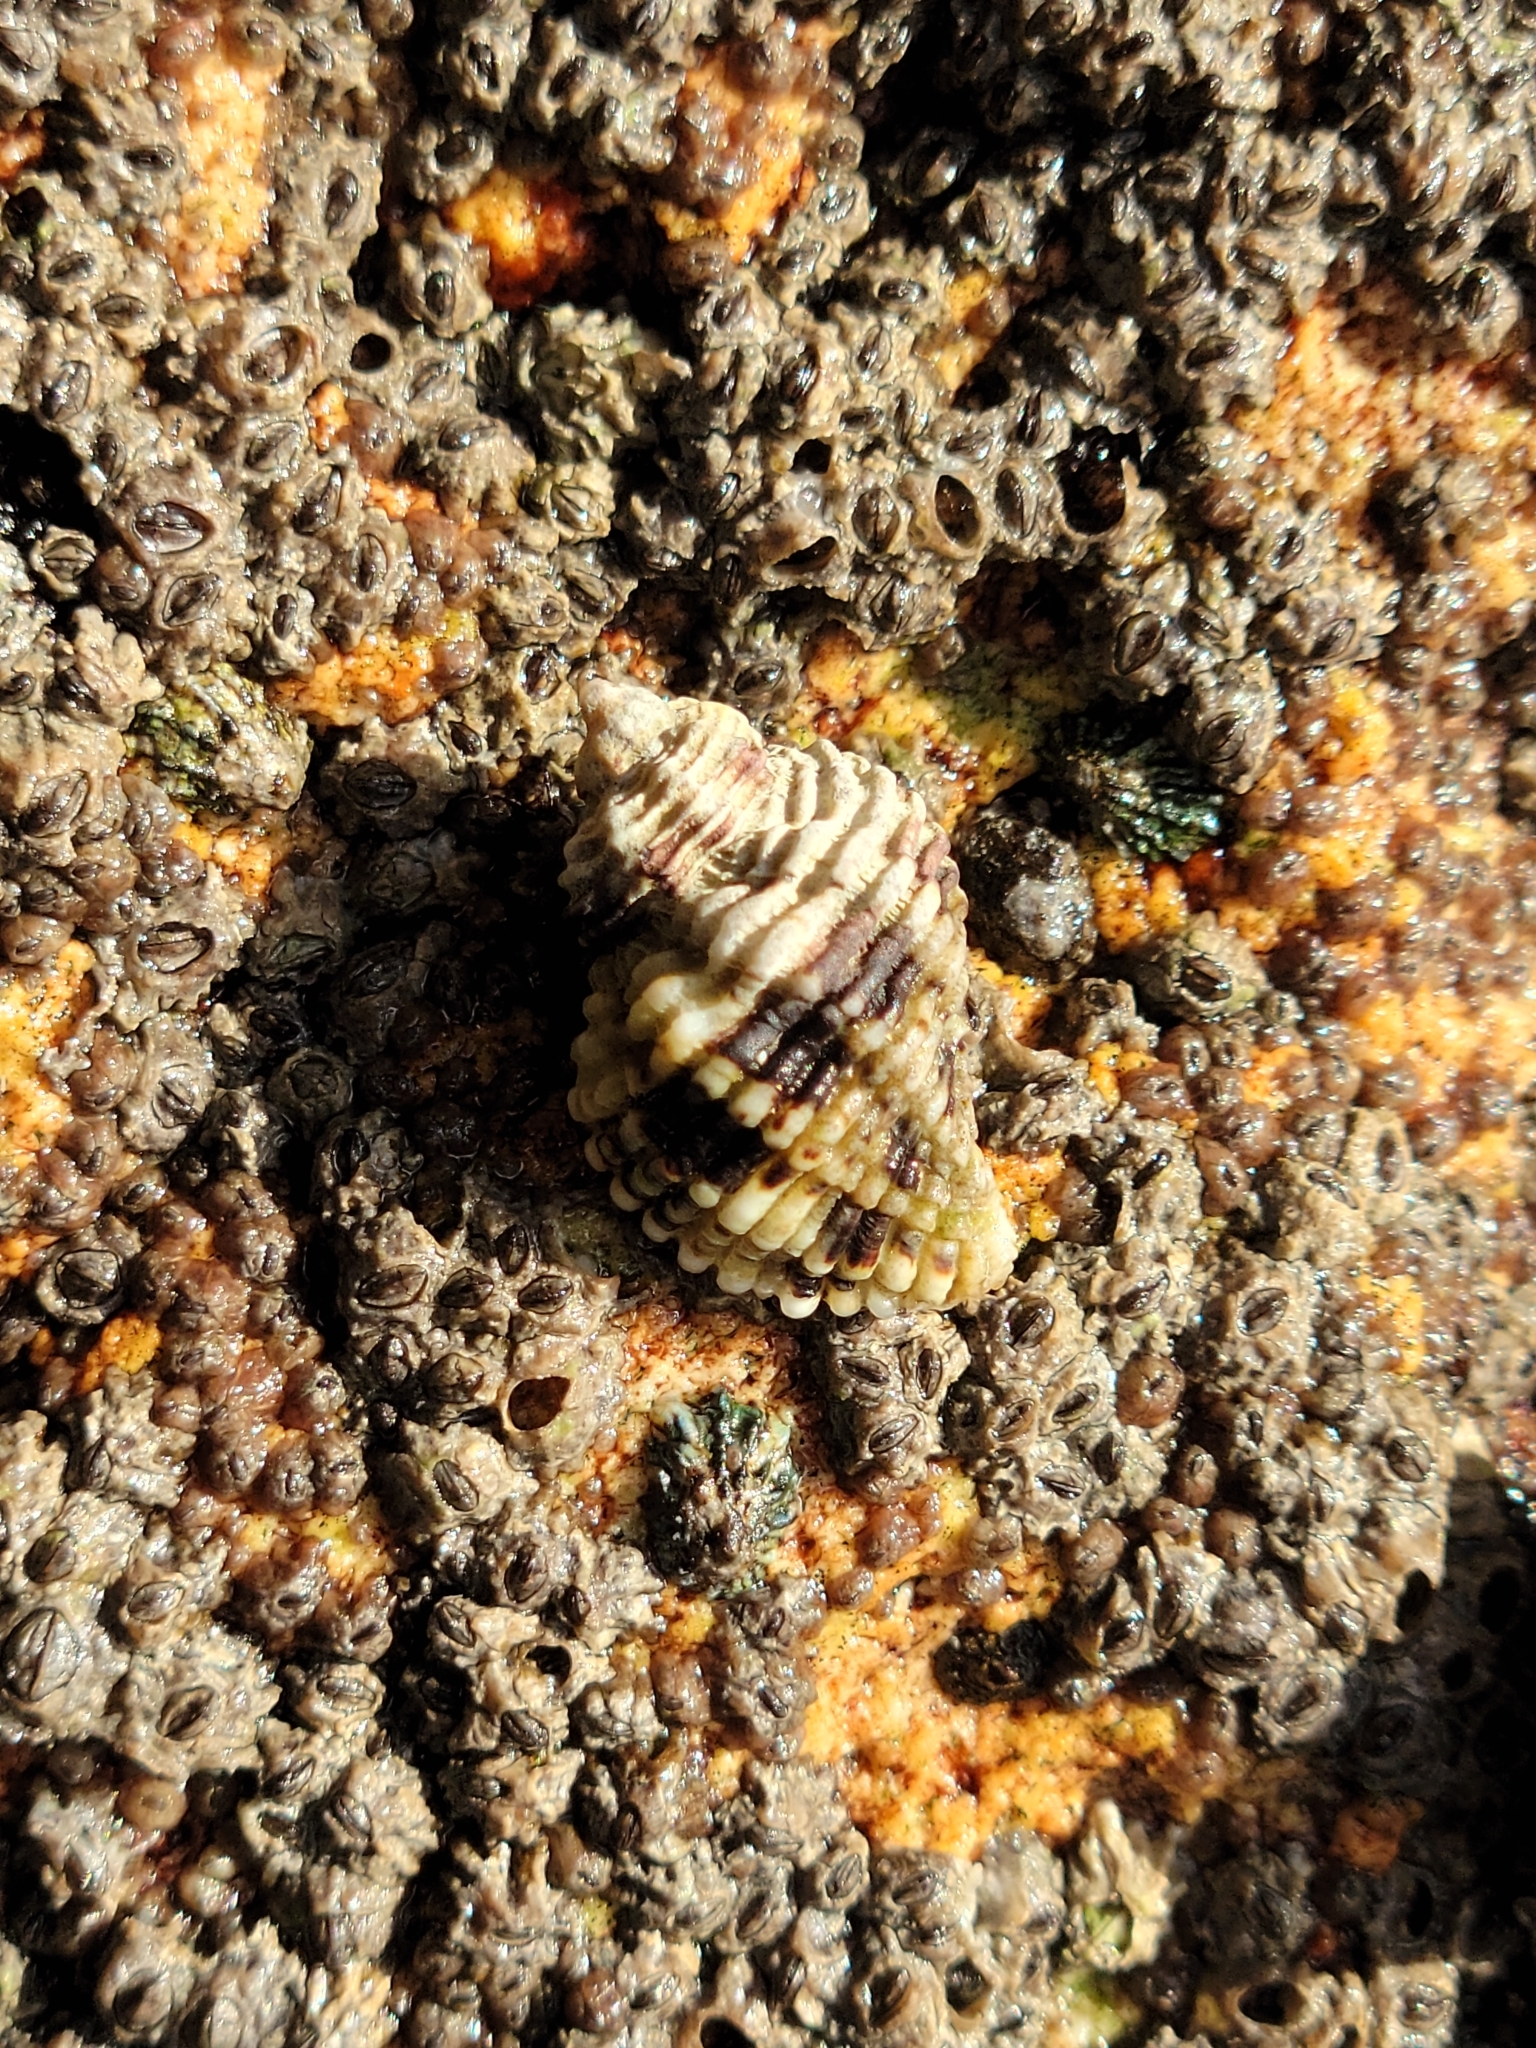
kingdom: Animalia
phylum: Mollusca
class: Gastropoda
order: Neogastropoda
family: Muricidae
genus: Paciocinebrina
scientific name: Paciocinebrina circumtexta
